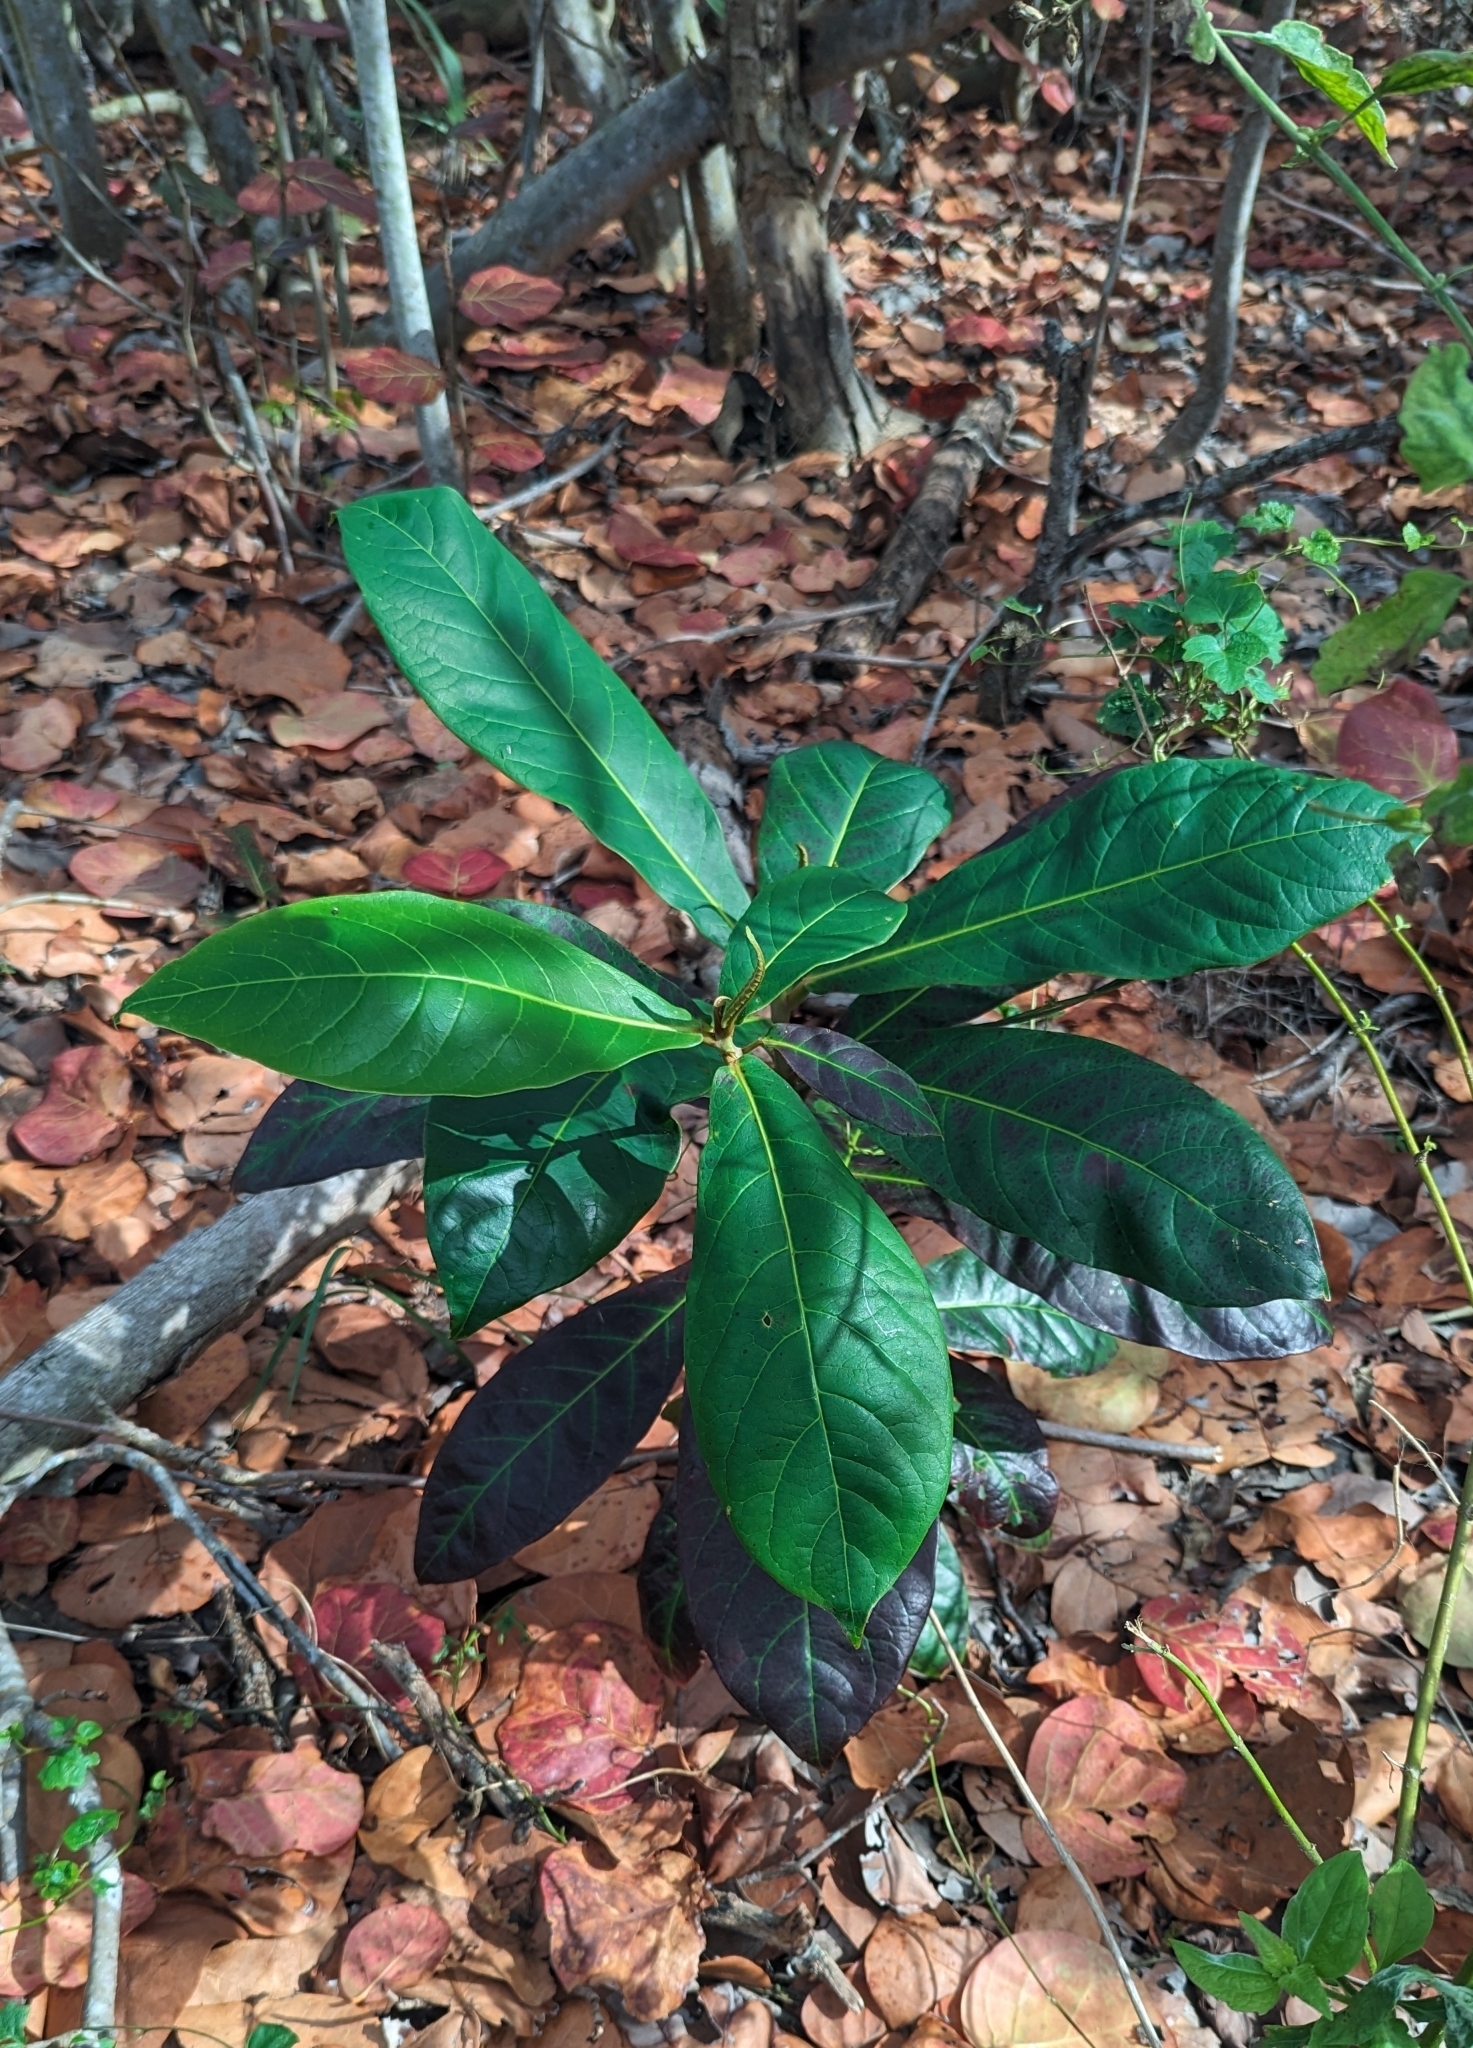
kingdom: Plantae
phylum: Tracheophyta
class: Magnoliopsida
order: Myrtales
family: Combretaceae
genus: Terminalia
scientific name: Terminalia catappa
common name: Tropical almond
